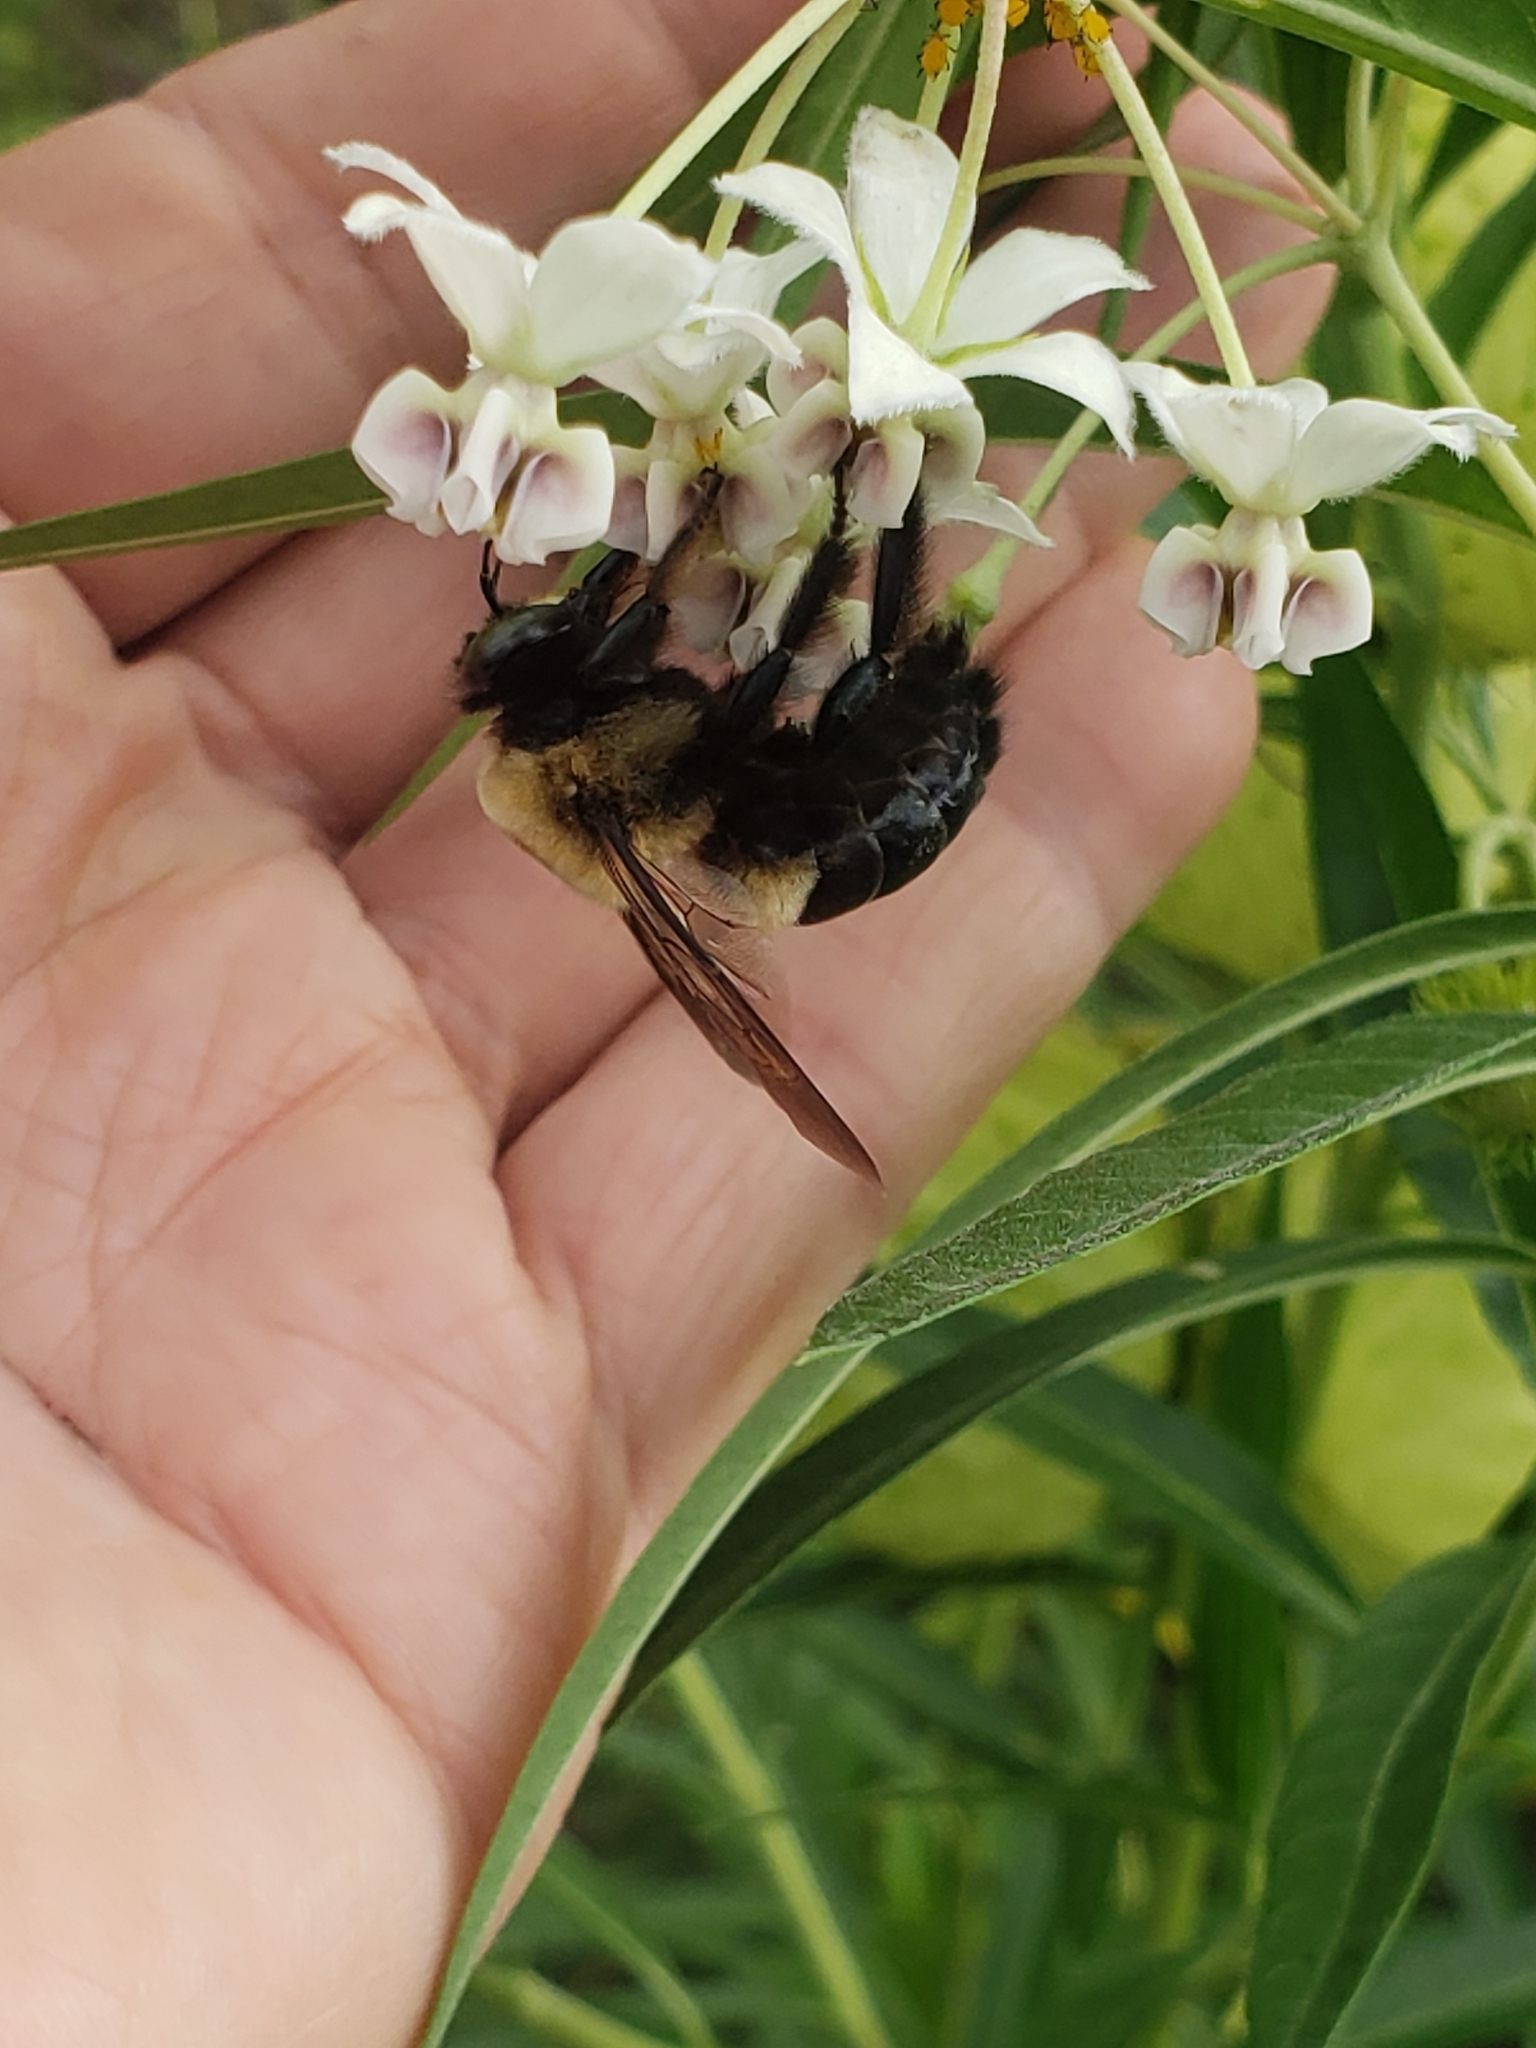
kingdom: Animalia
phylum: Arthropoda
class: Insecta
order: Hymenoptera
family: Apidae
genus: Xylocopa
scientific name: Xylocopa virginica
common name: Carpenter bee
